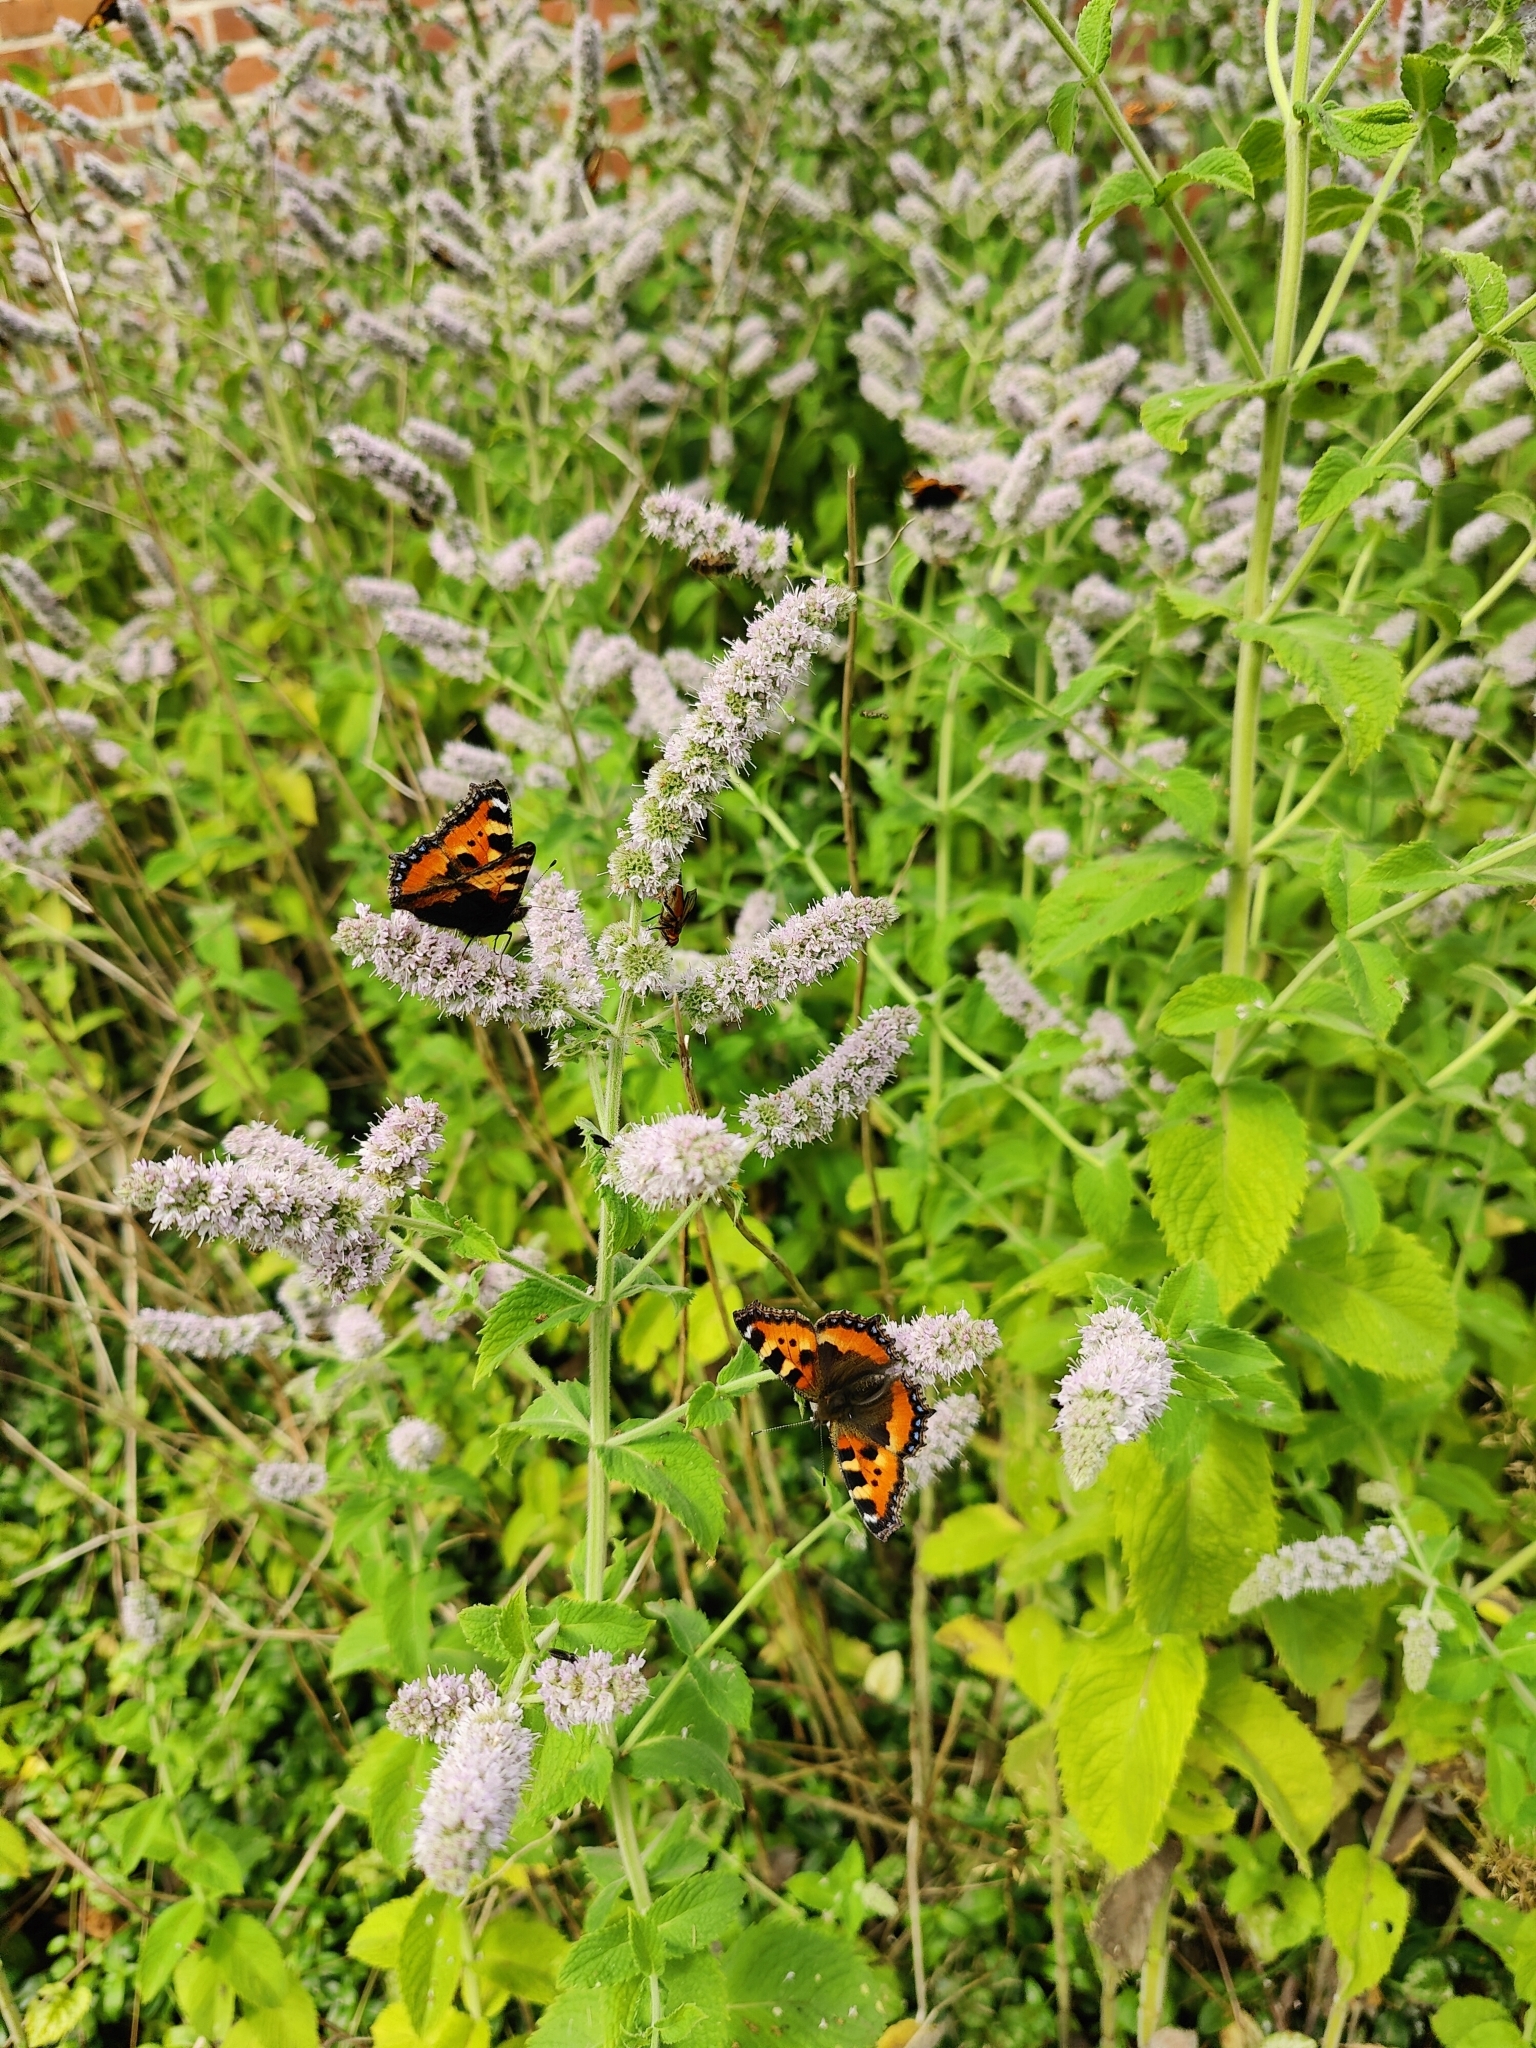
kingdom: Animalia
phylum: Arthropoda
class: Insecta
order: Lepidoptera
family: Nymphalidae
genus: Aglais
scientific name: Aglais urticae
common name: Small tortoiseshell
